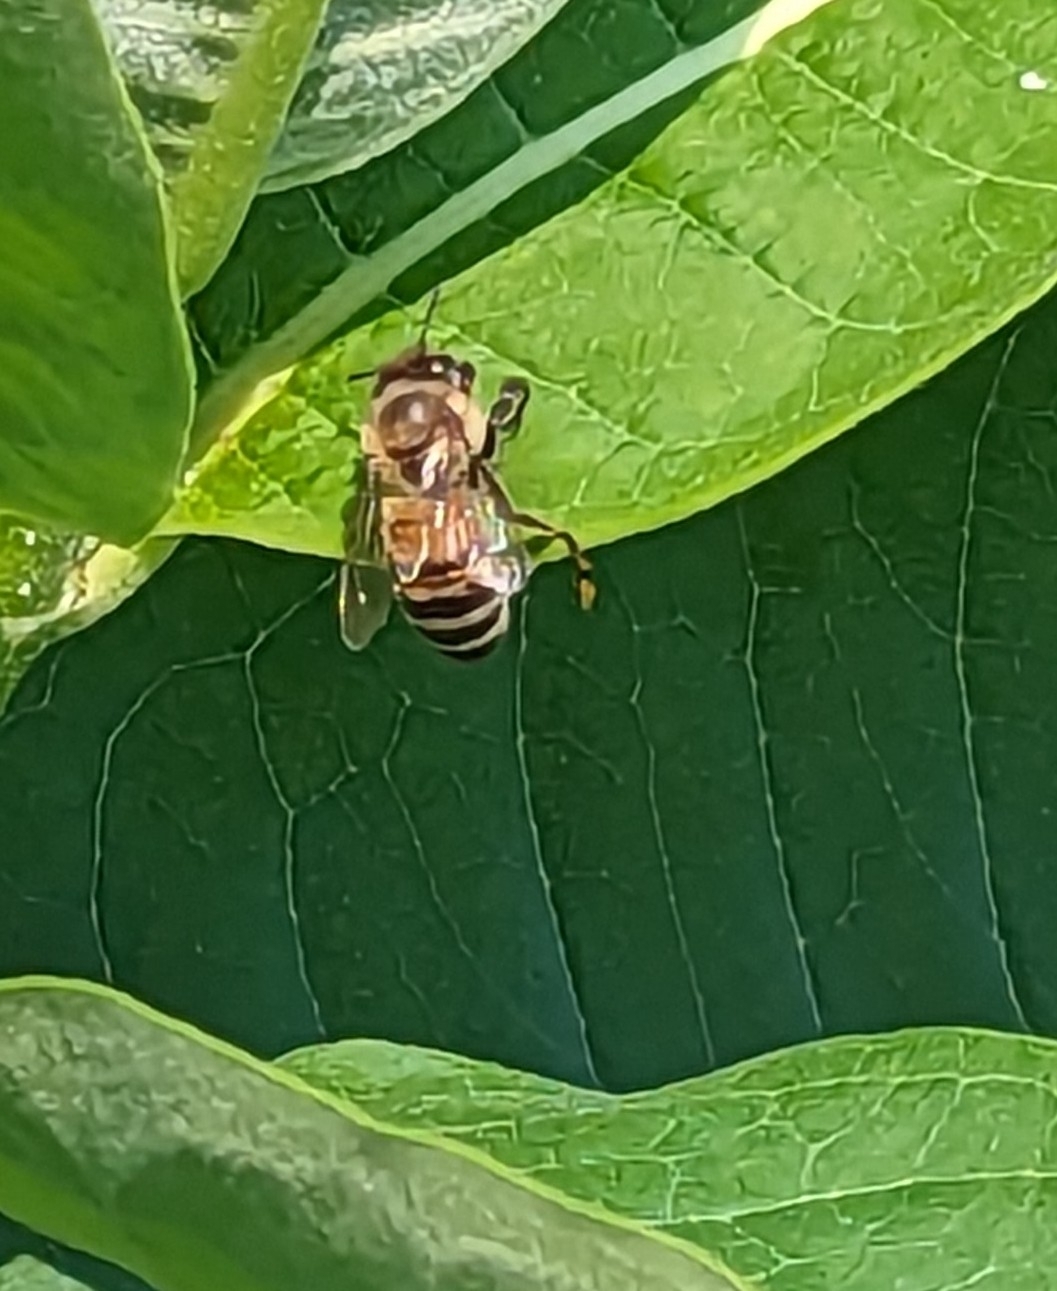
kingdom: Animalia
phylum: Arthropoda
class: Insecta
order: Hymenoptera
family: Apidae
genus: Apis
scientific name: Apis mellifera
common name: Honey bee
